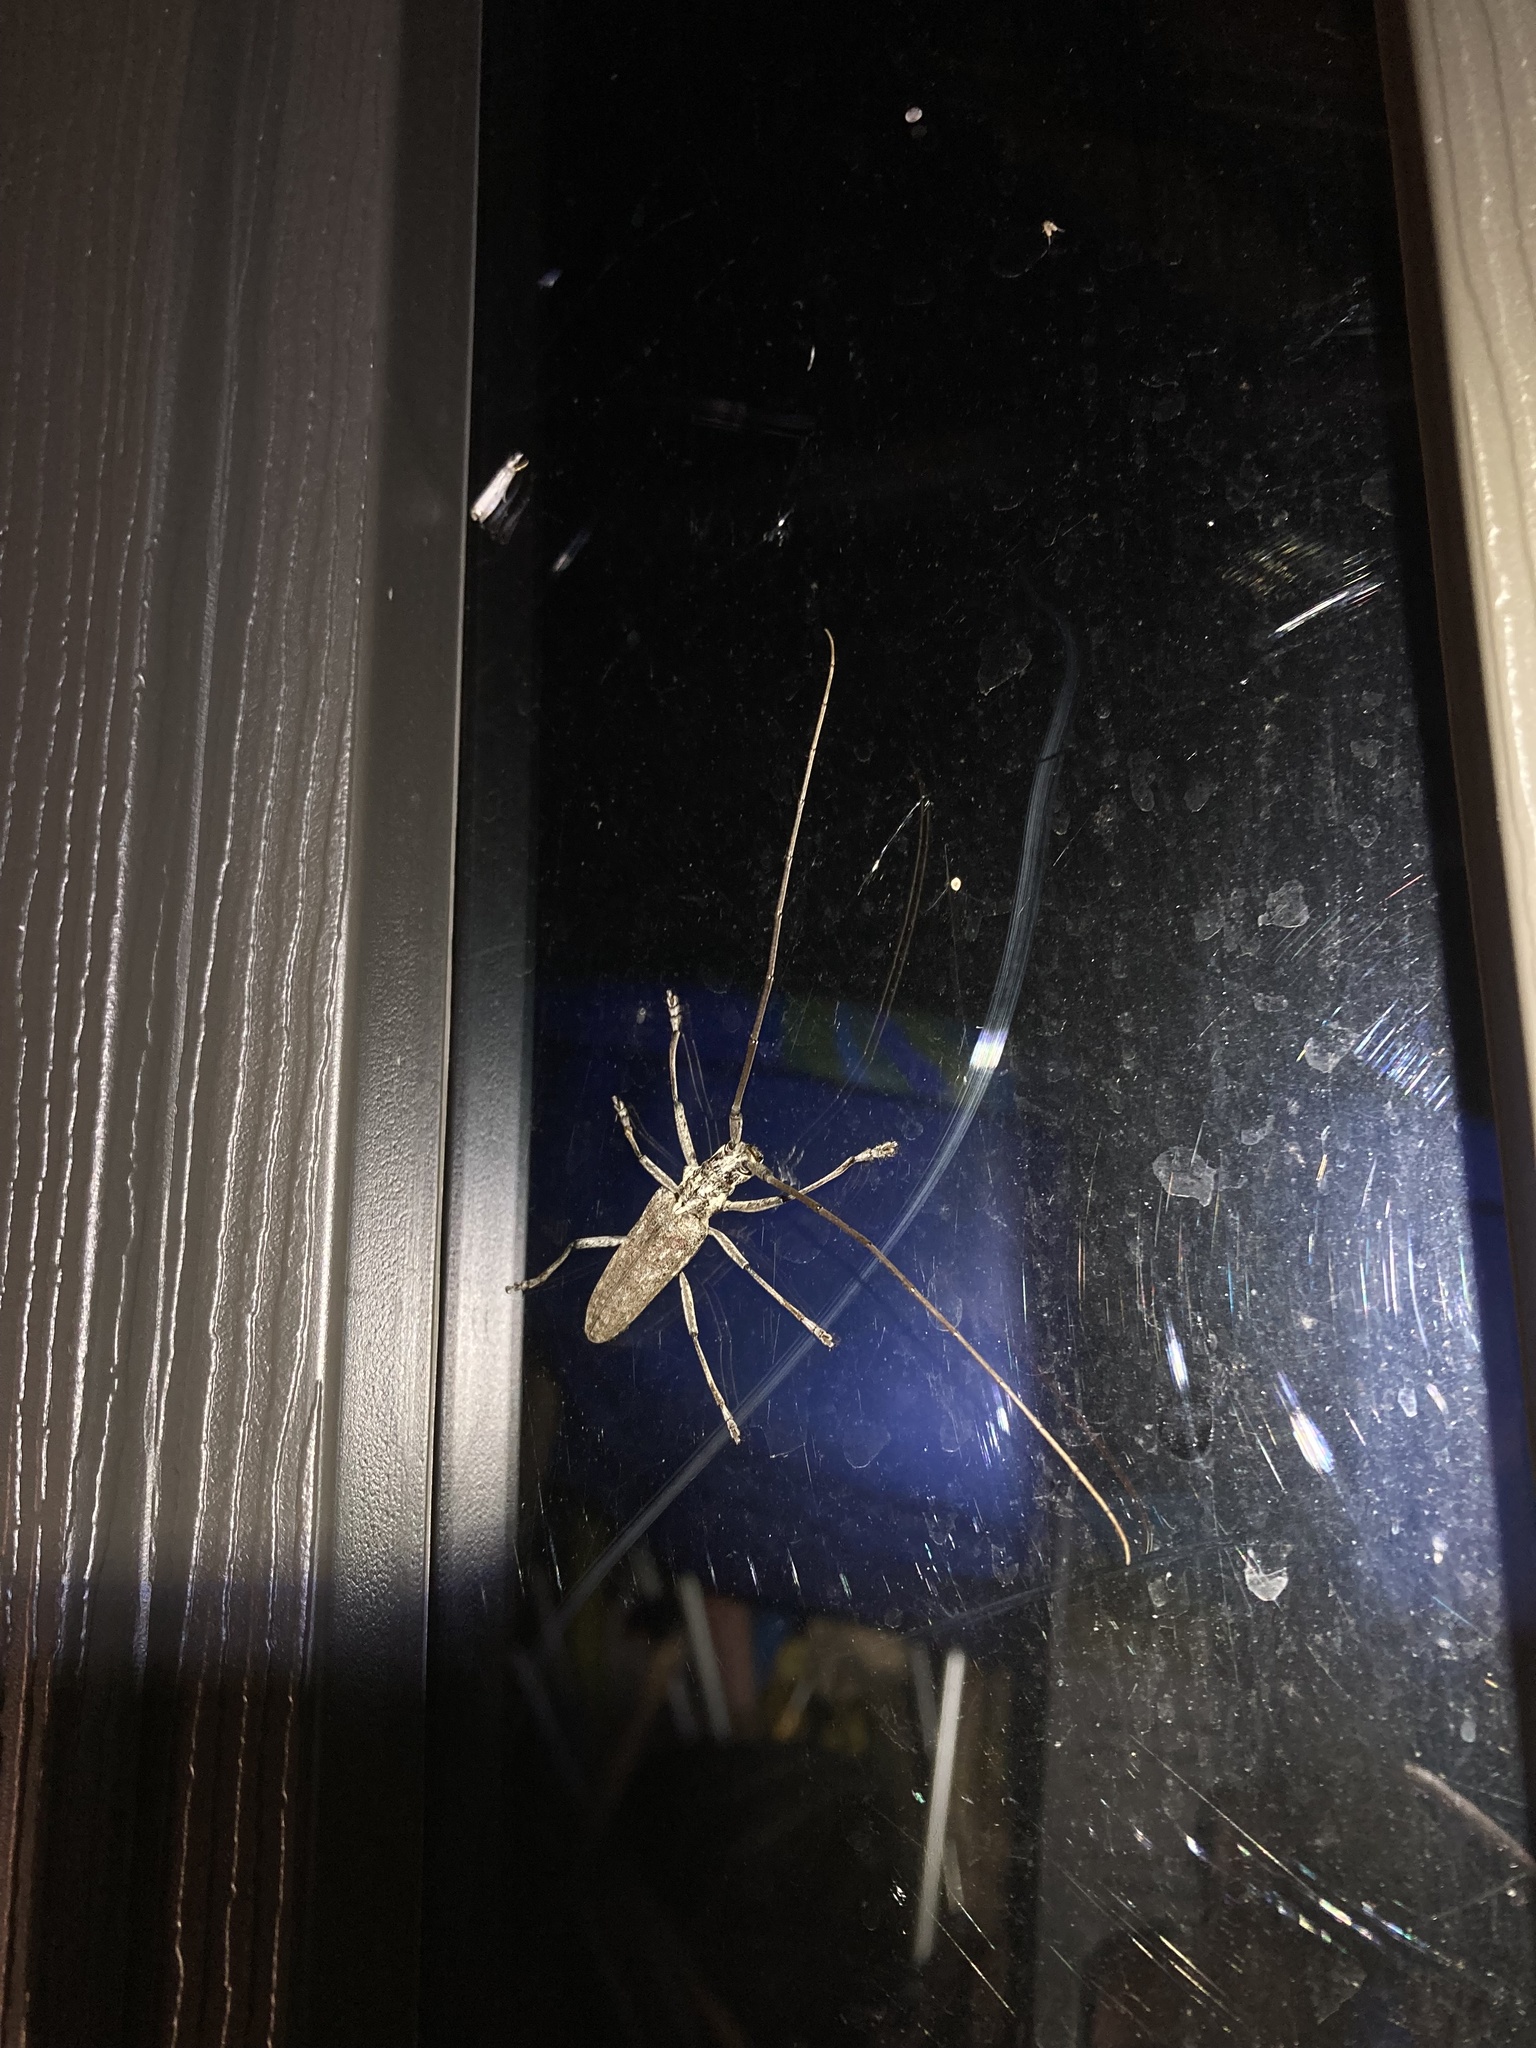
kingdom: Animalia
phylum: Arthropoda
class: Insecta
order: Coleoptera
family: Cerambycidae
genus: Monochamus
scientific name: Monochamus notatus
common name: Northeastern pine sawyer beetle
